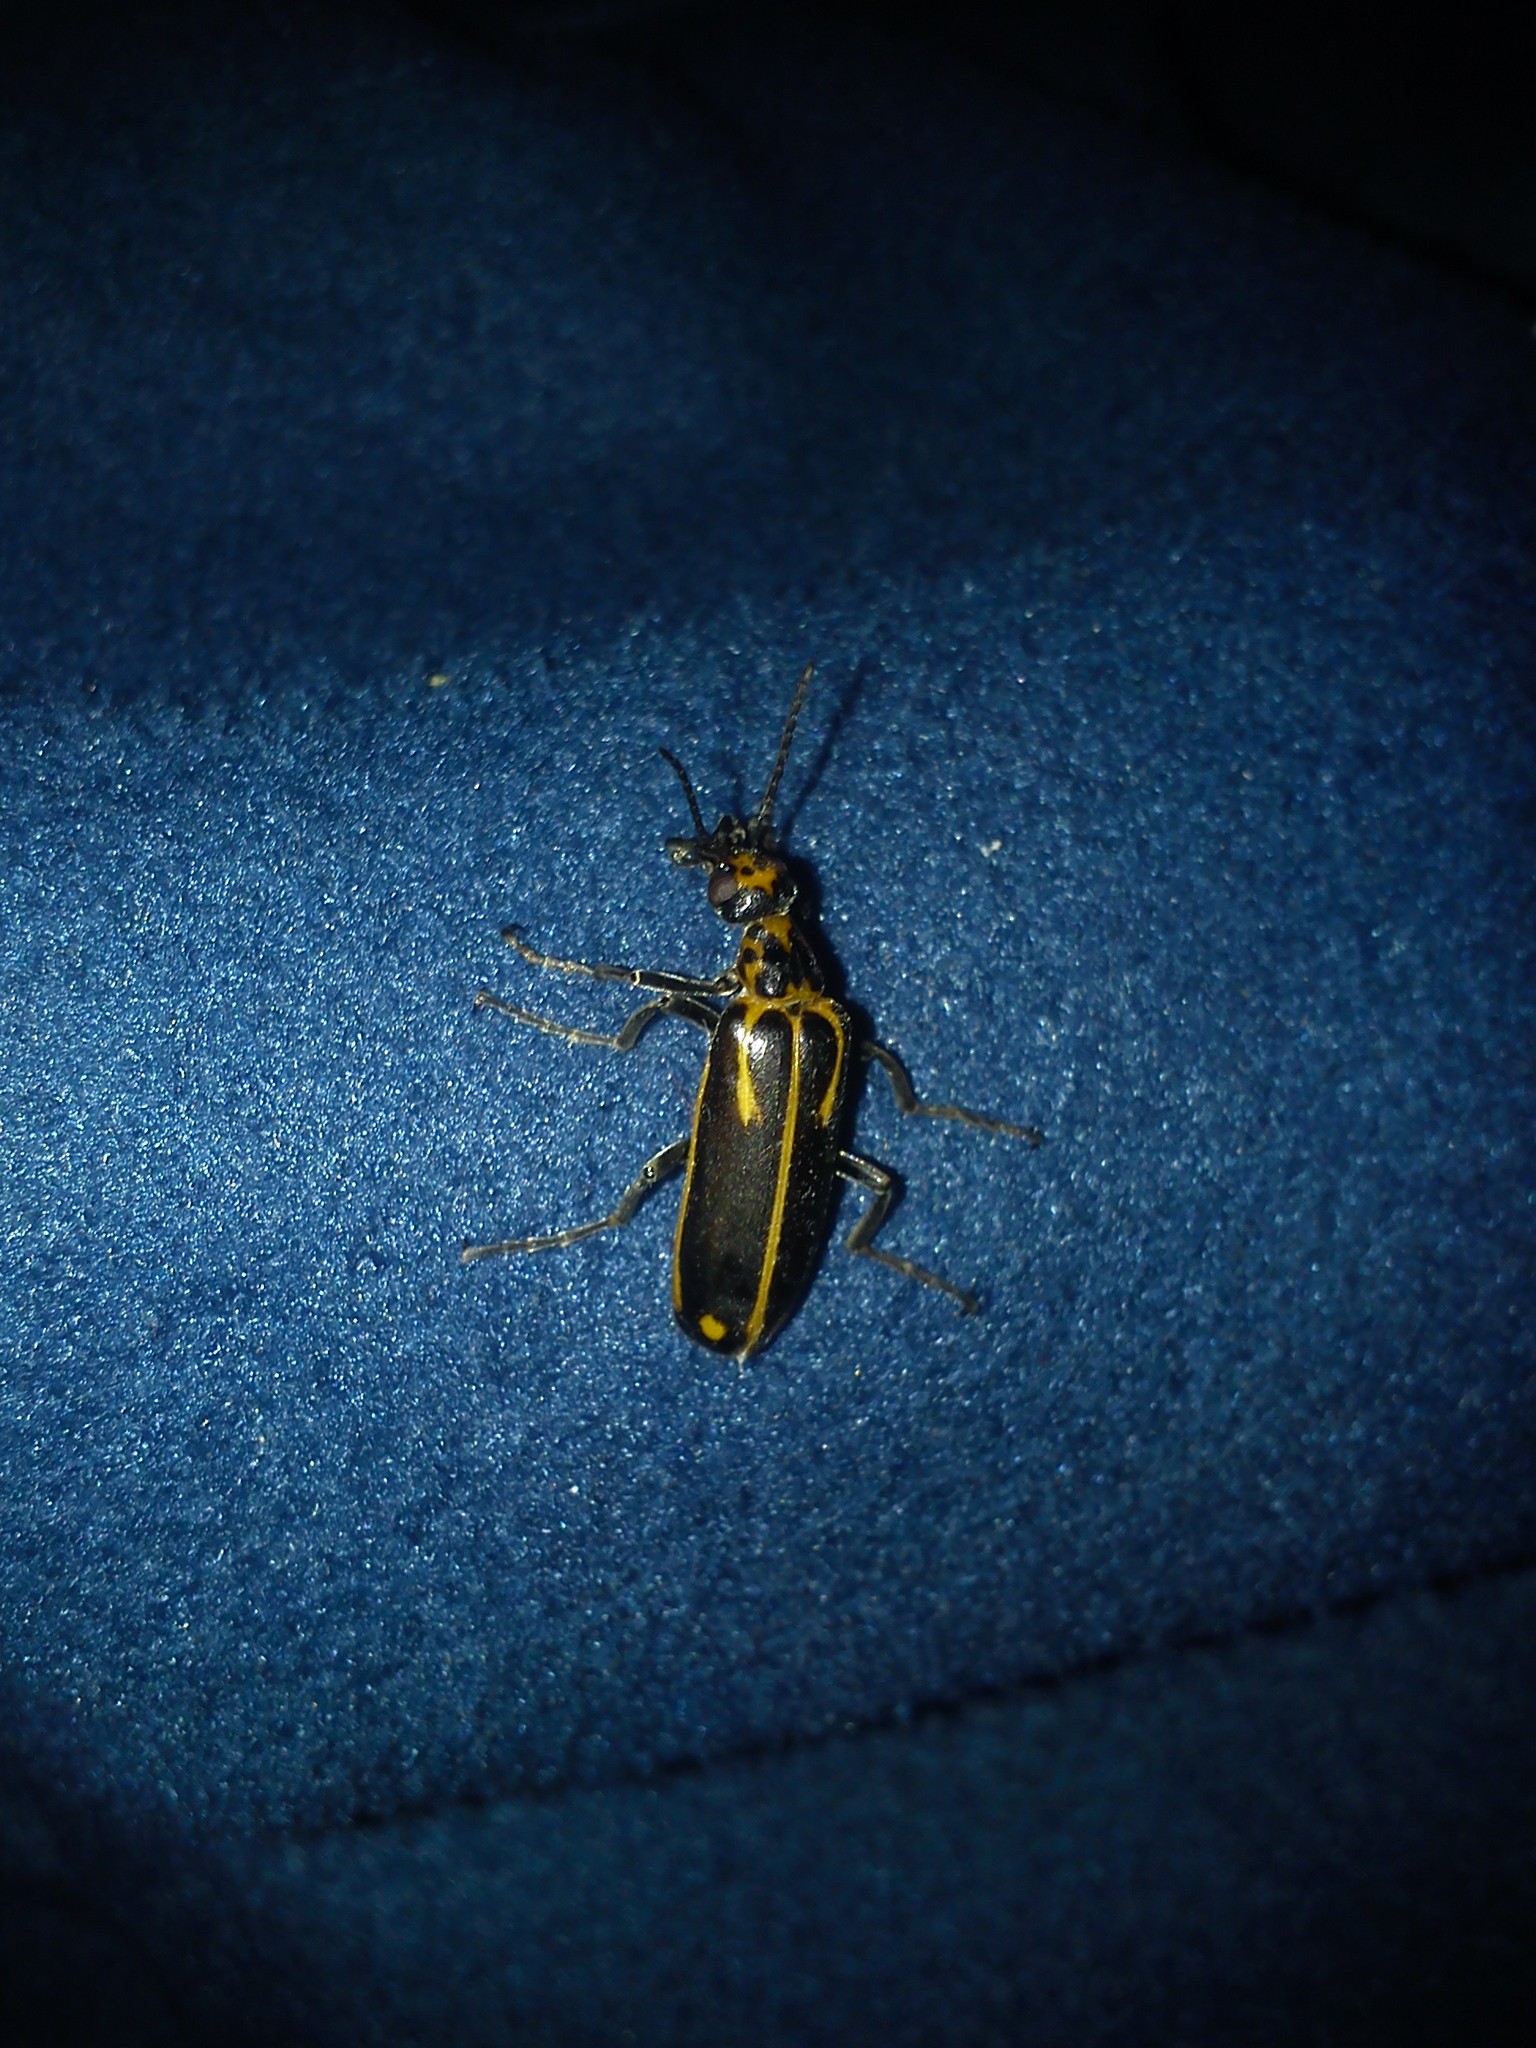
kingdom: Animalia
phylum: Arthropoda
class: Insecta
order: Coleoptera
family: Meloidae
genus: Pyrota
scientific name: Pyrota insulata
